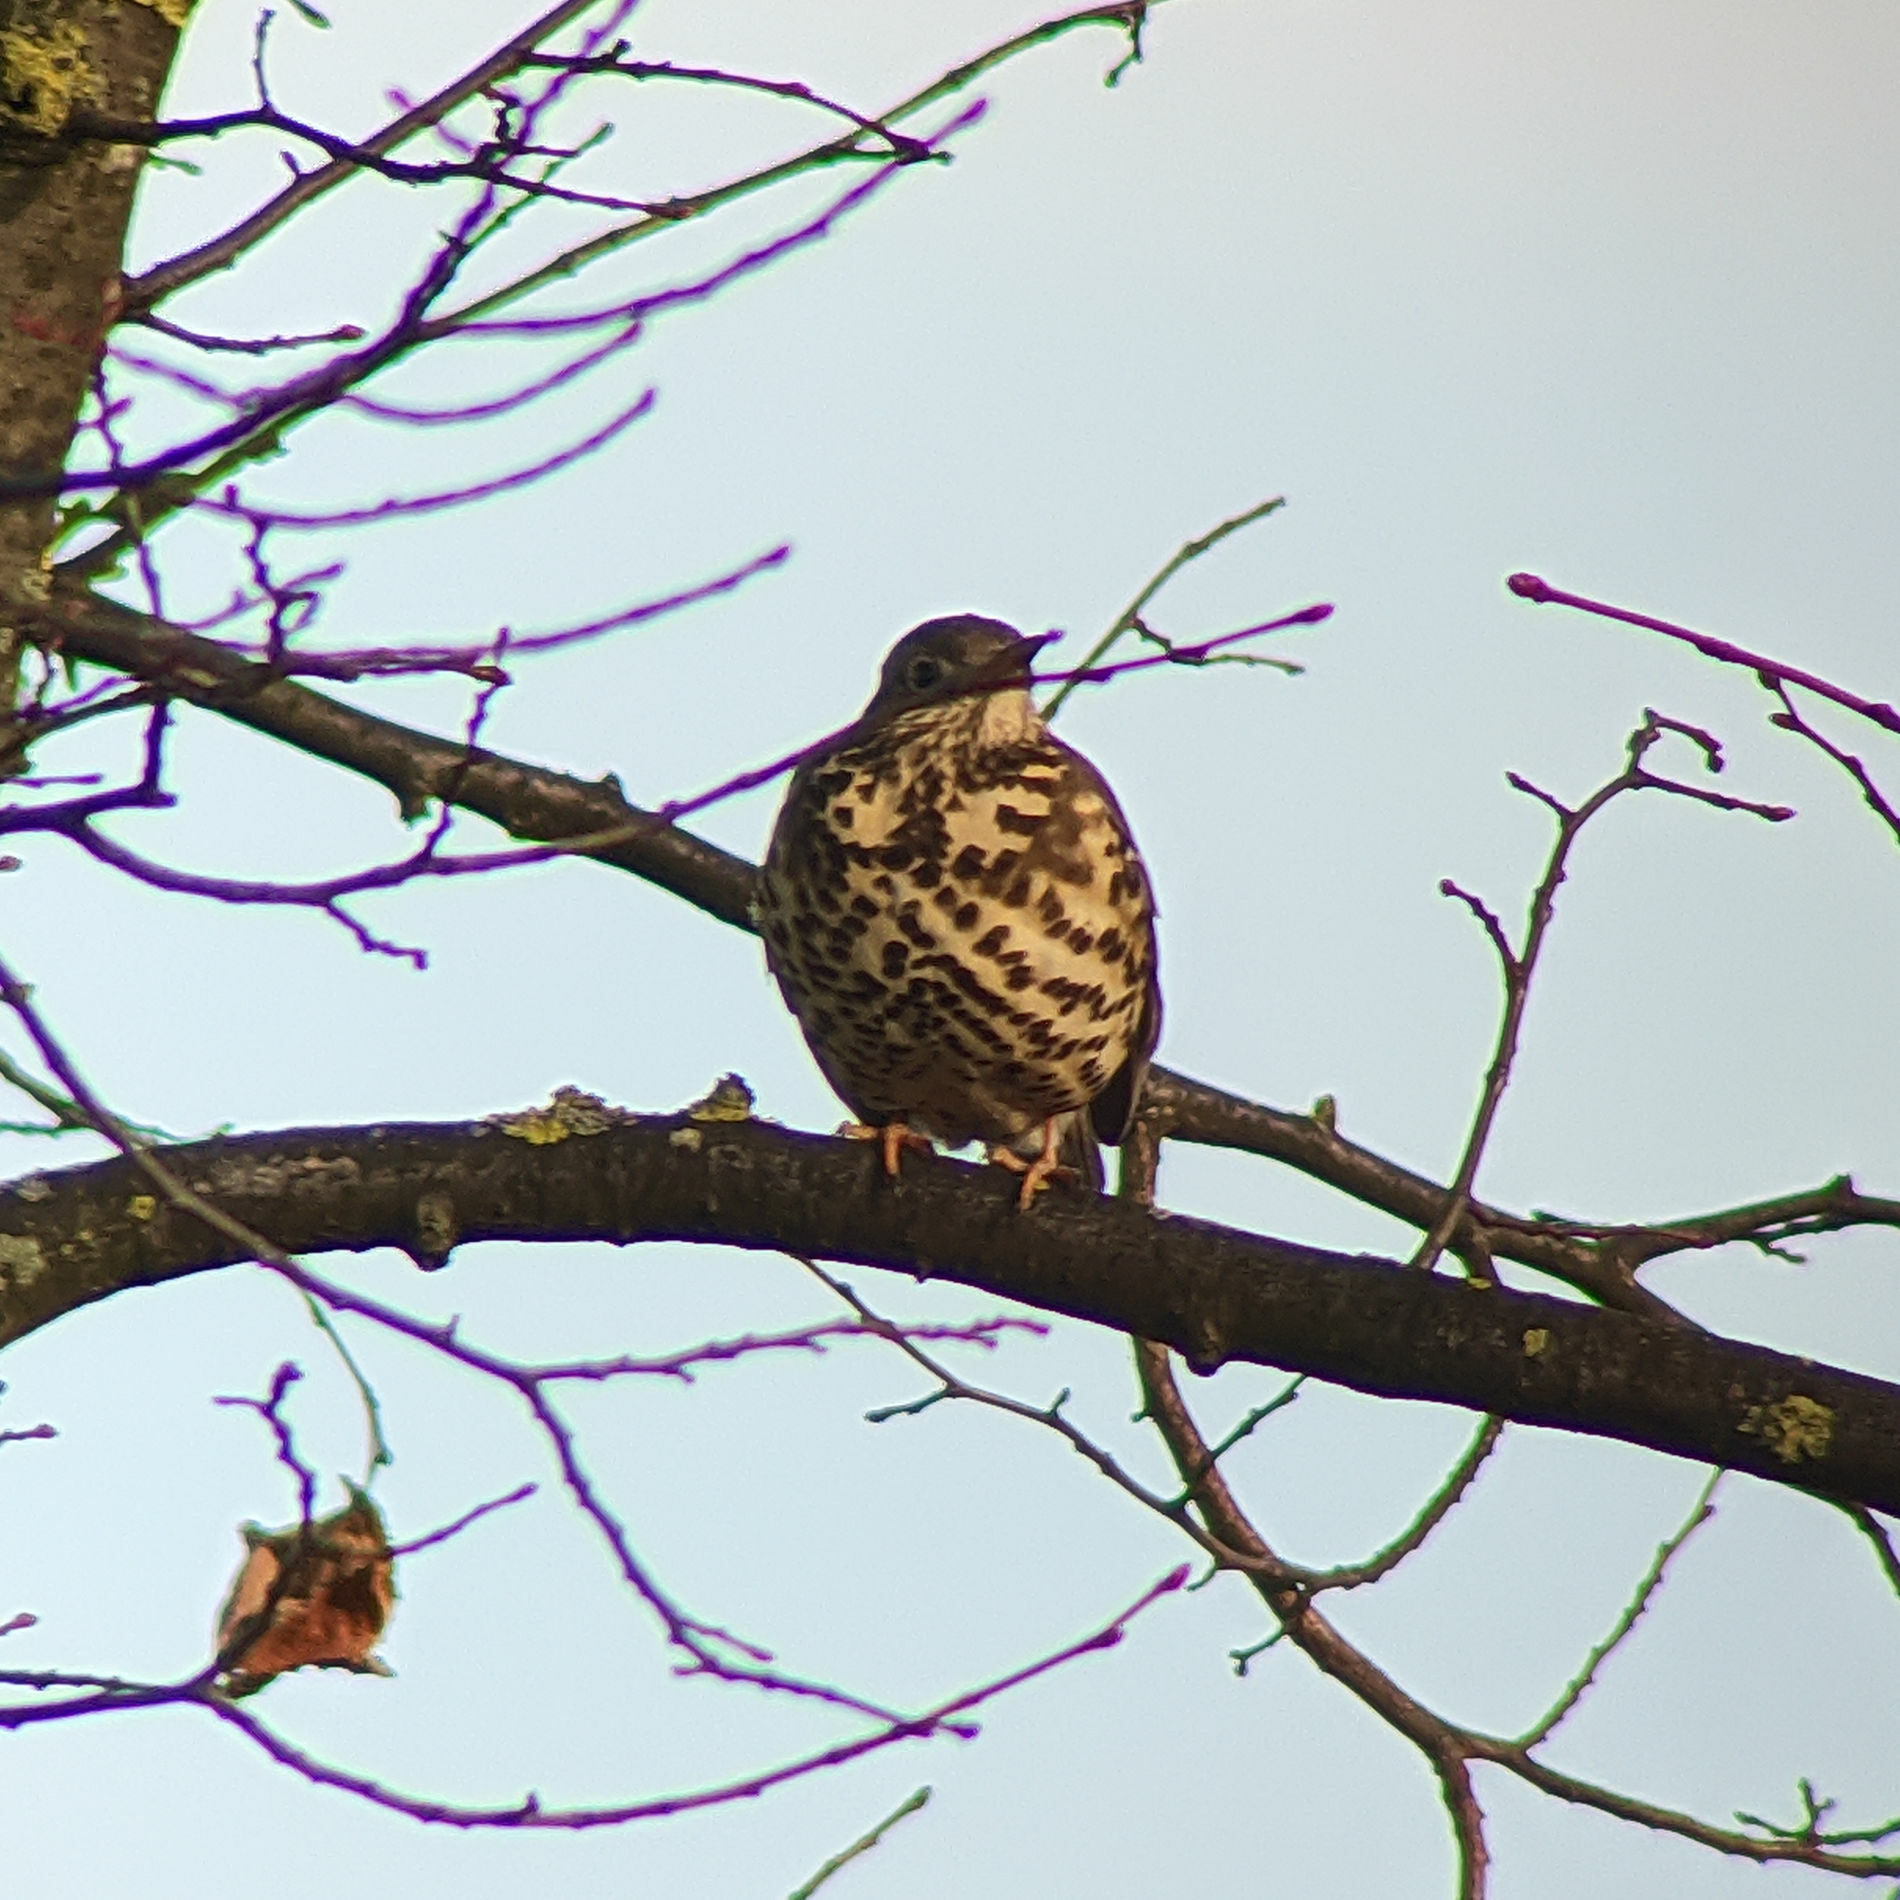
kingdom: Animalia
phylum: Chordata
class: Aves
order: Passeriformes
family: Turdidae
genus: Turdus
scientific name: Turdus viscivorus
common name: Mistle thrush
